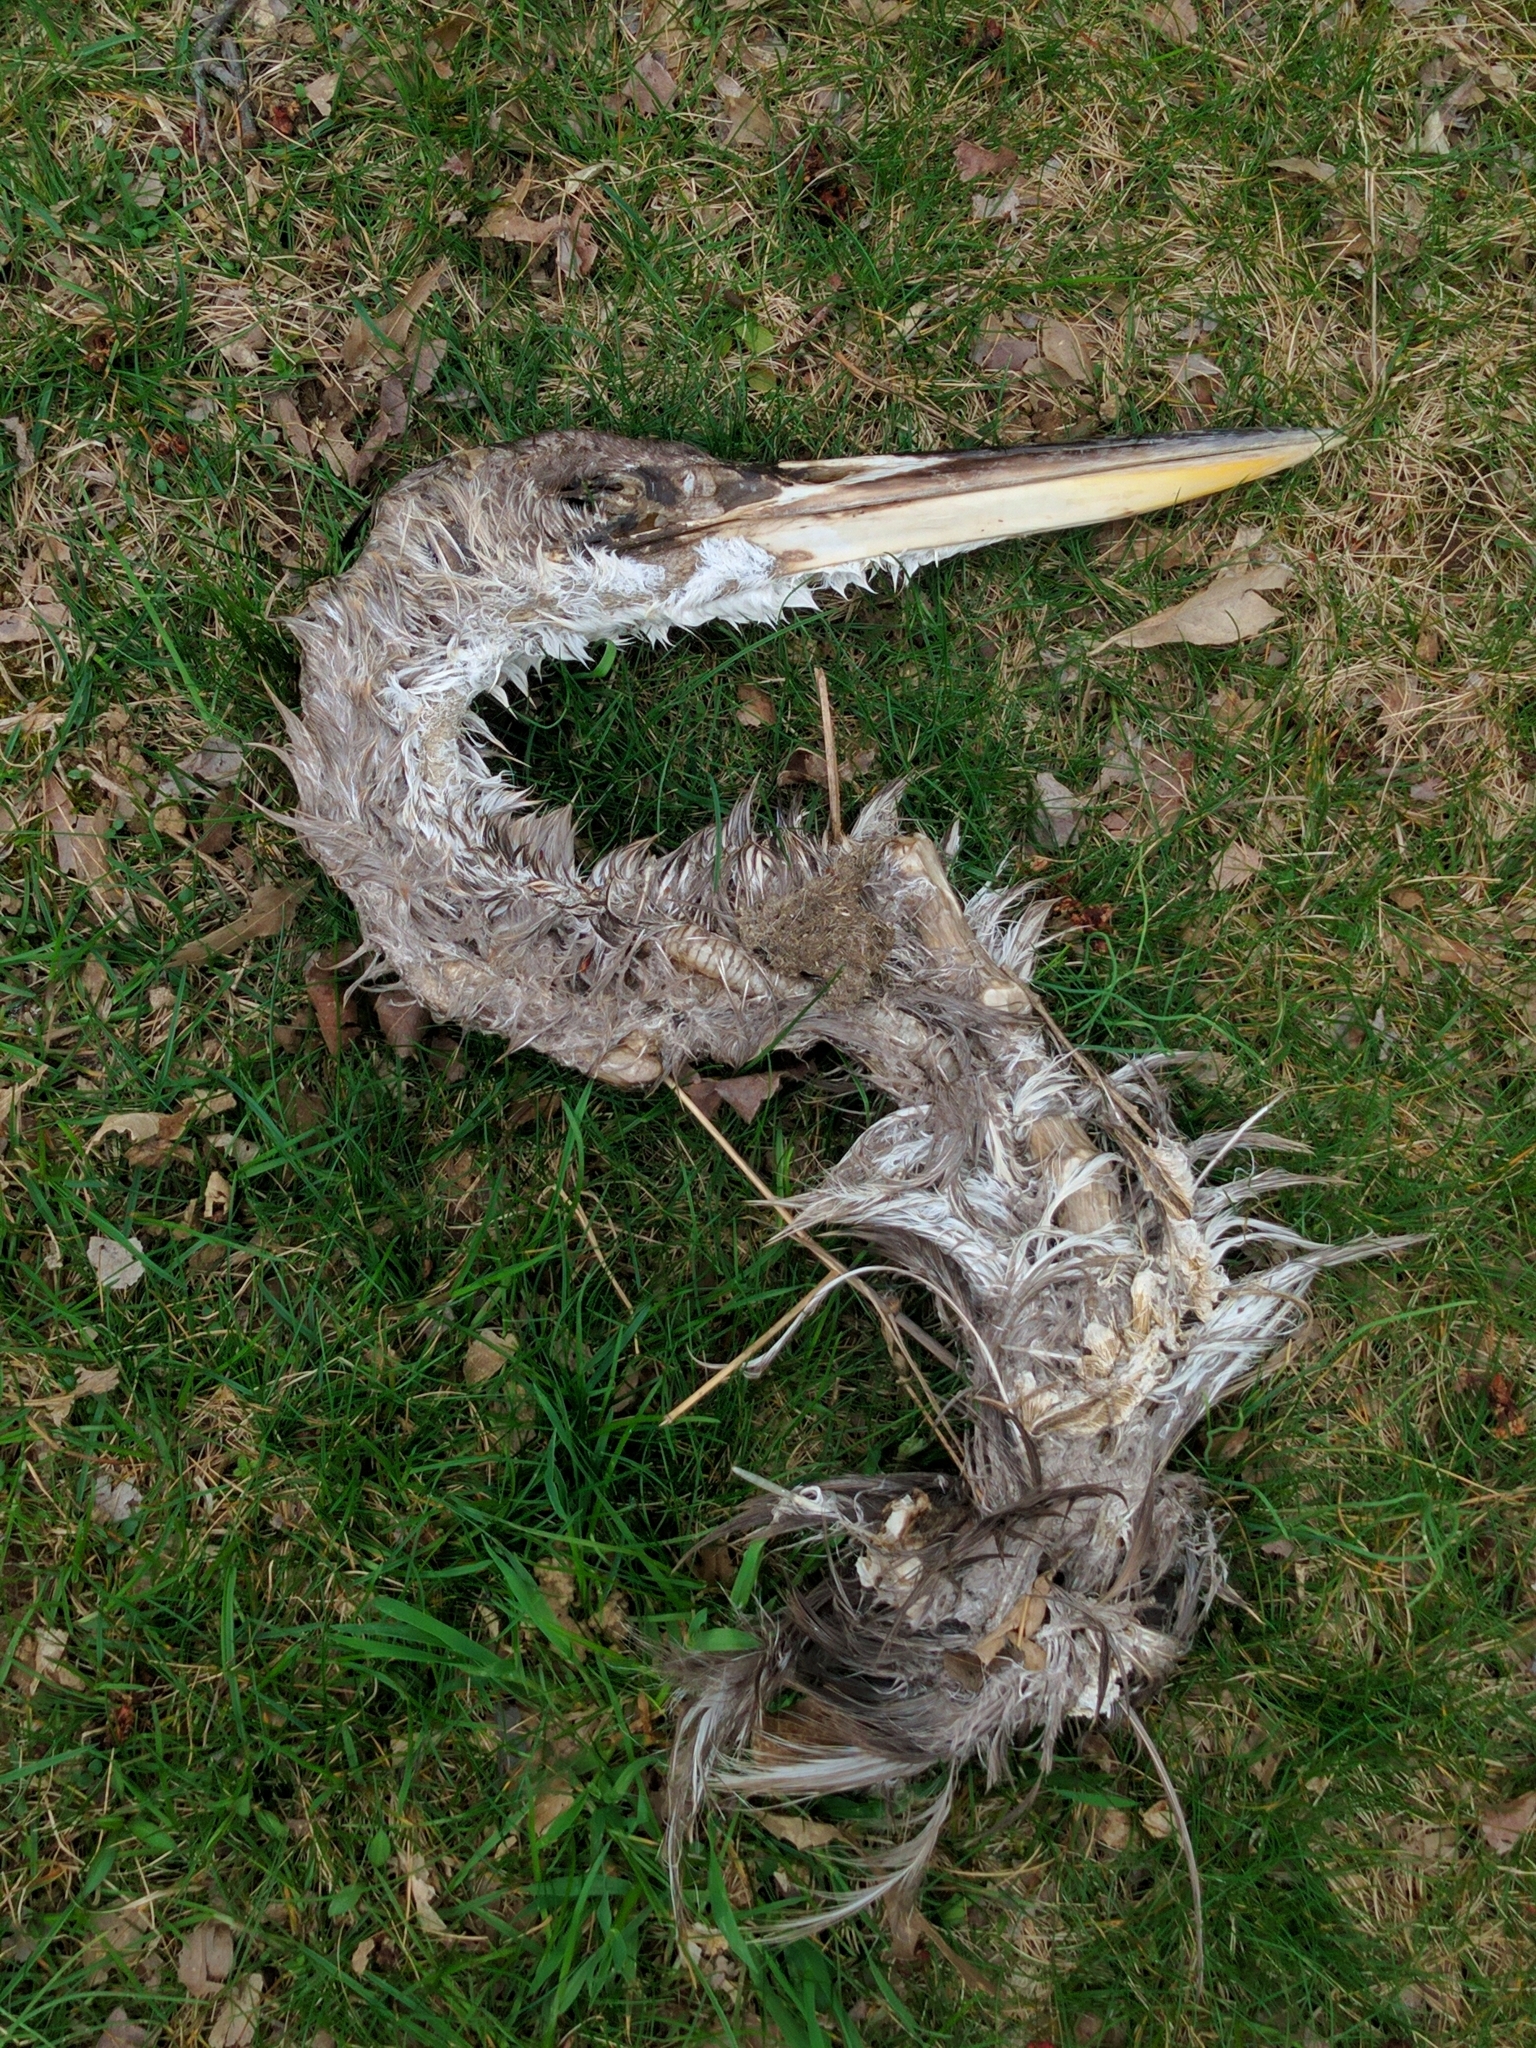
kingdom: Animalia
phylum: Chordata
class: Aves
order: Pelecaniformes
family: Ardeidae
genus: Ardea
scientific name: Ardea herodias
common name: Great blue heron
